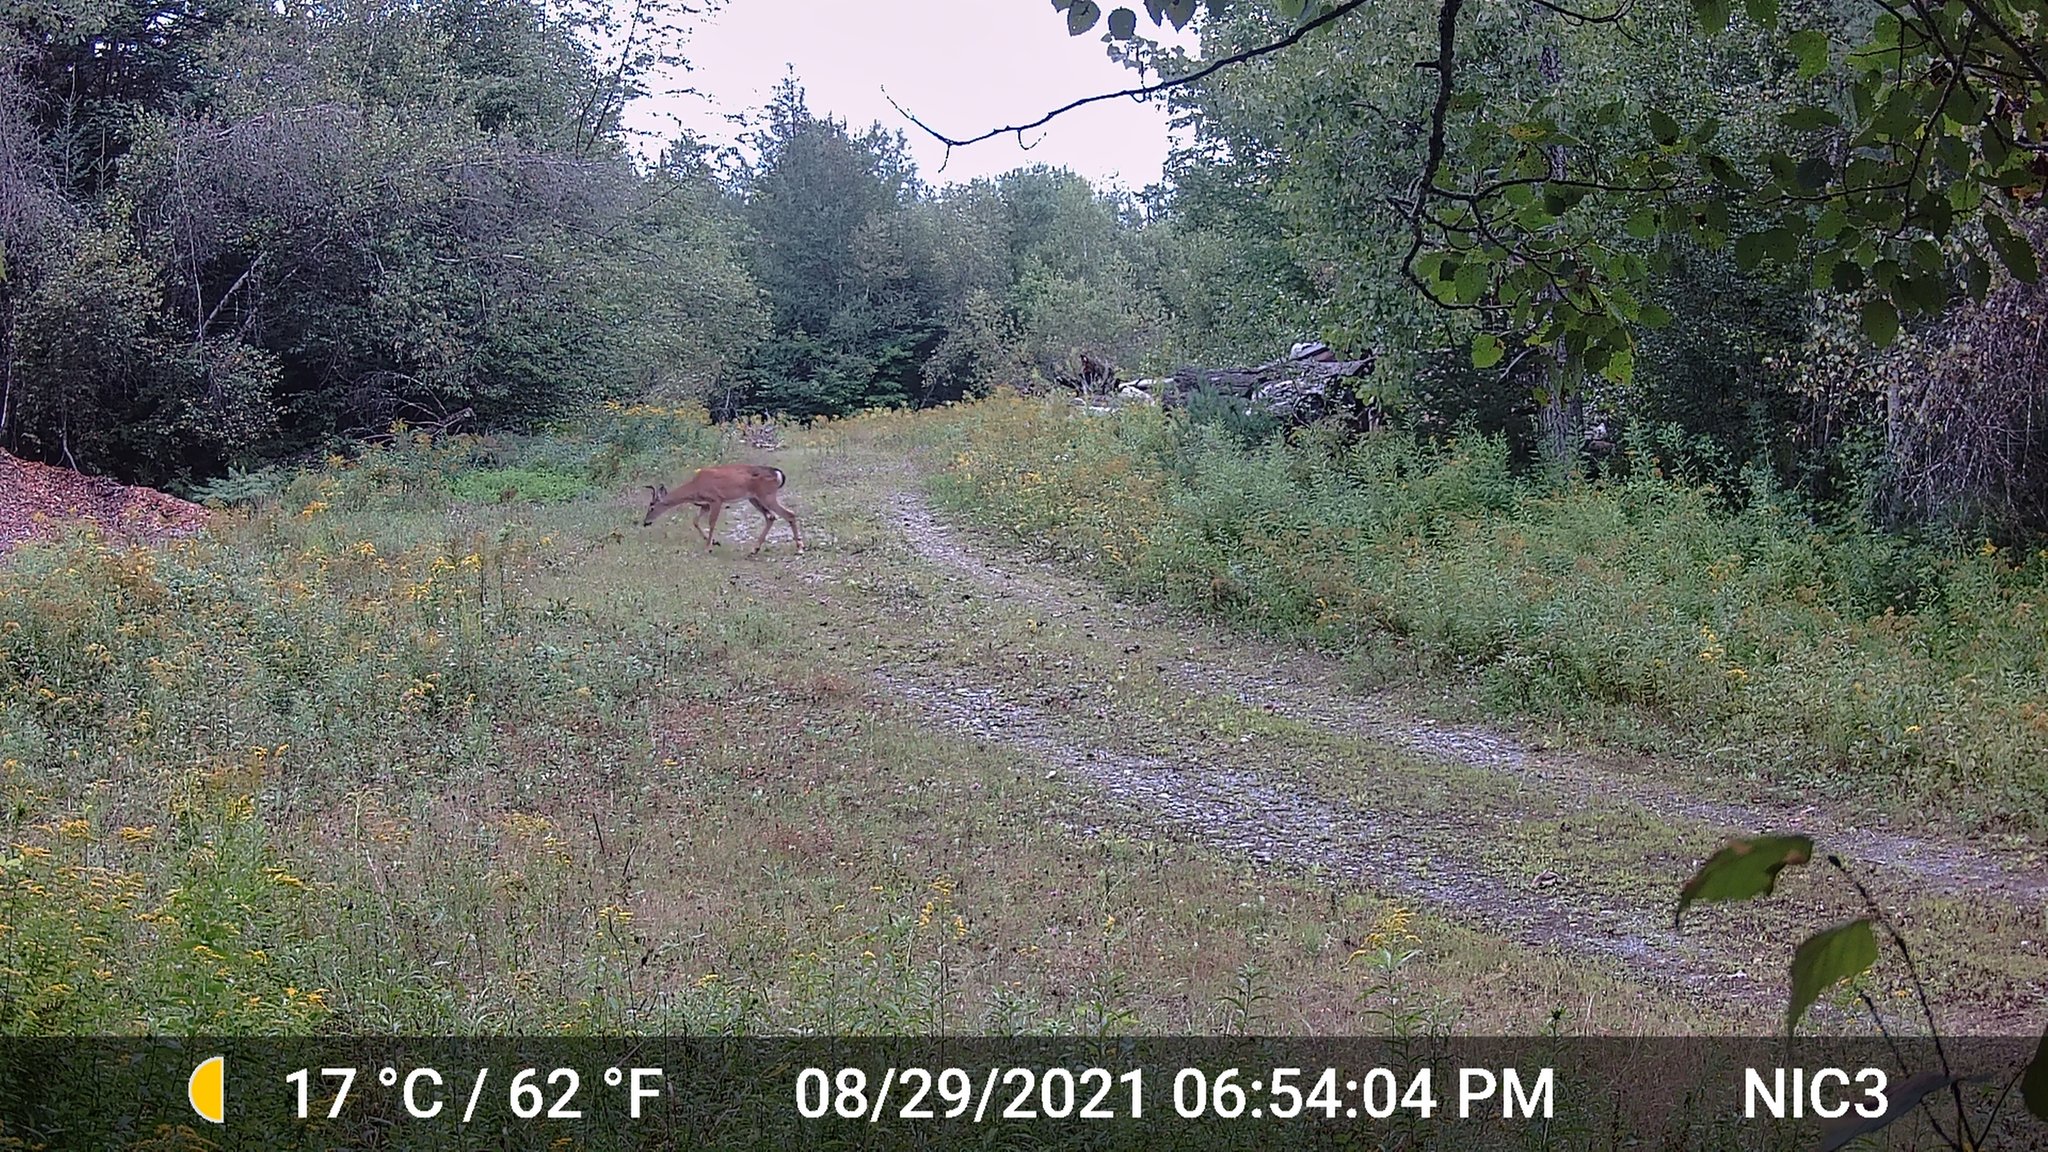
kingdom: Animalia
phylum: Chordata
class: Mammalia
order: Artiodactyla
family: Cervidae
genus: Odocoileus
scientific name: Odocoileus virginianus
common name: White-tailed deer
